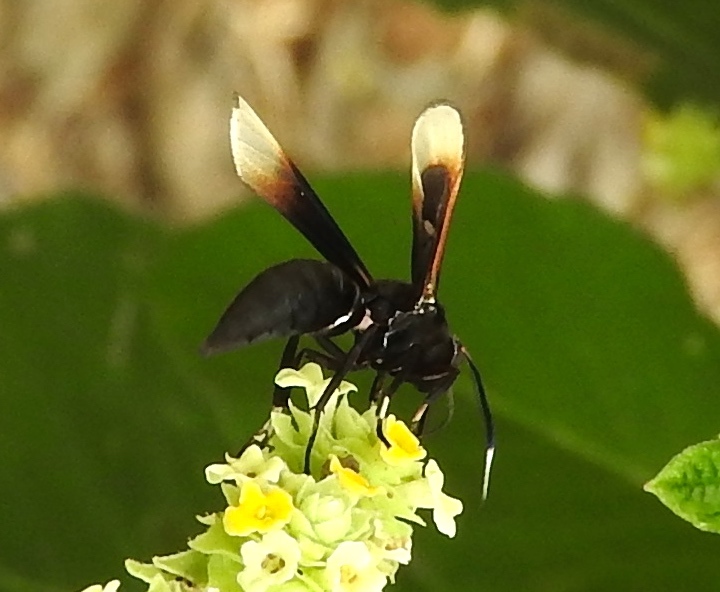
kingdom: Animalia
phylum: Arthropoda
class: Insecta
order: Lepidoptera
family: Erebidae
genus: Arctiinae
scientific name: Arctiinae
